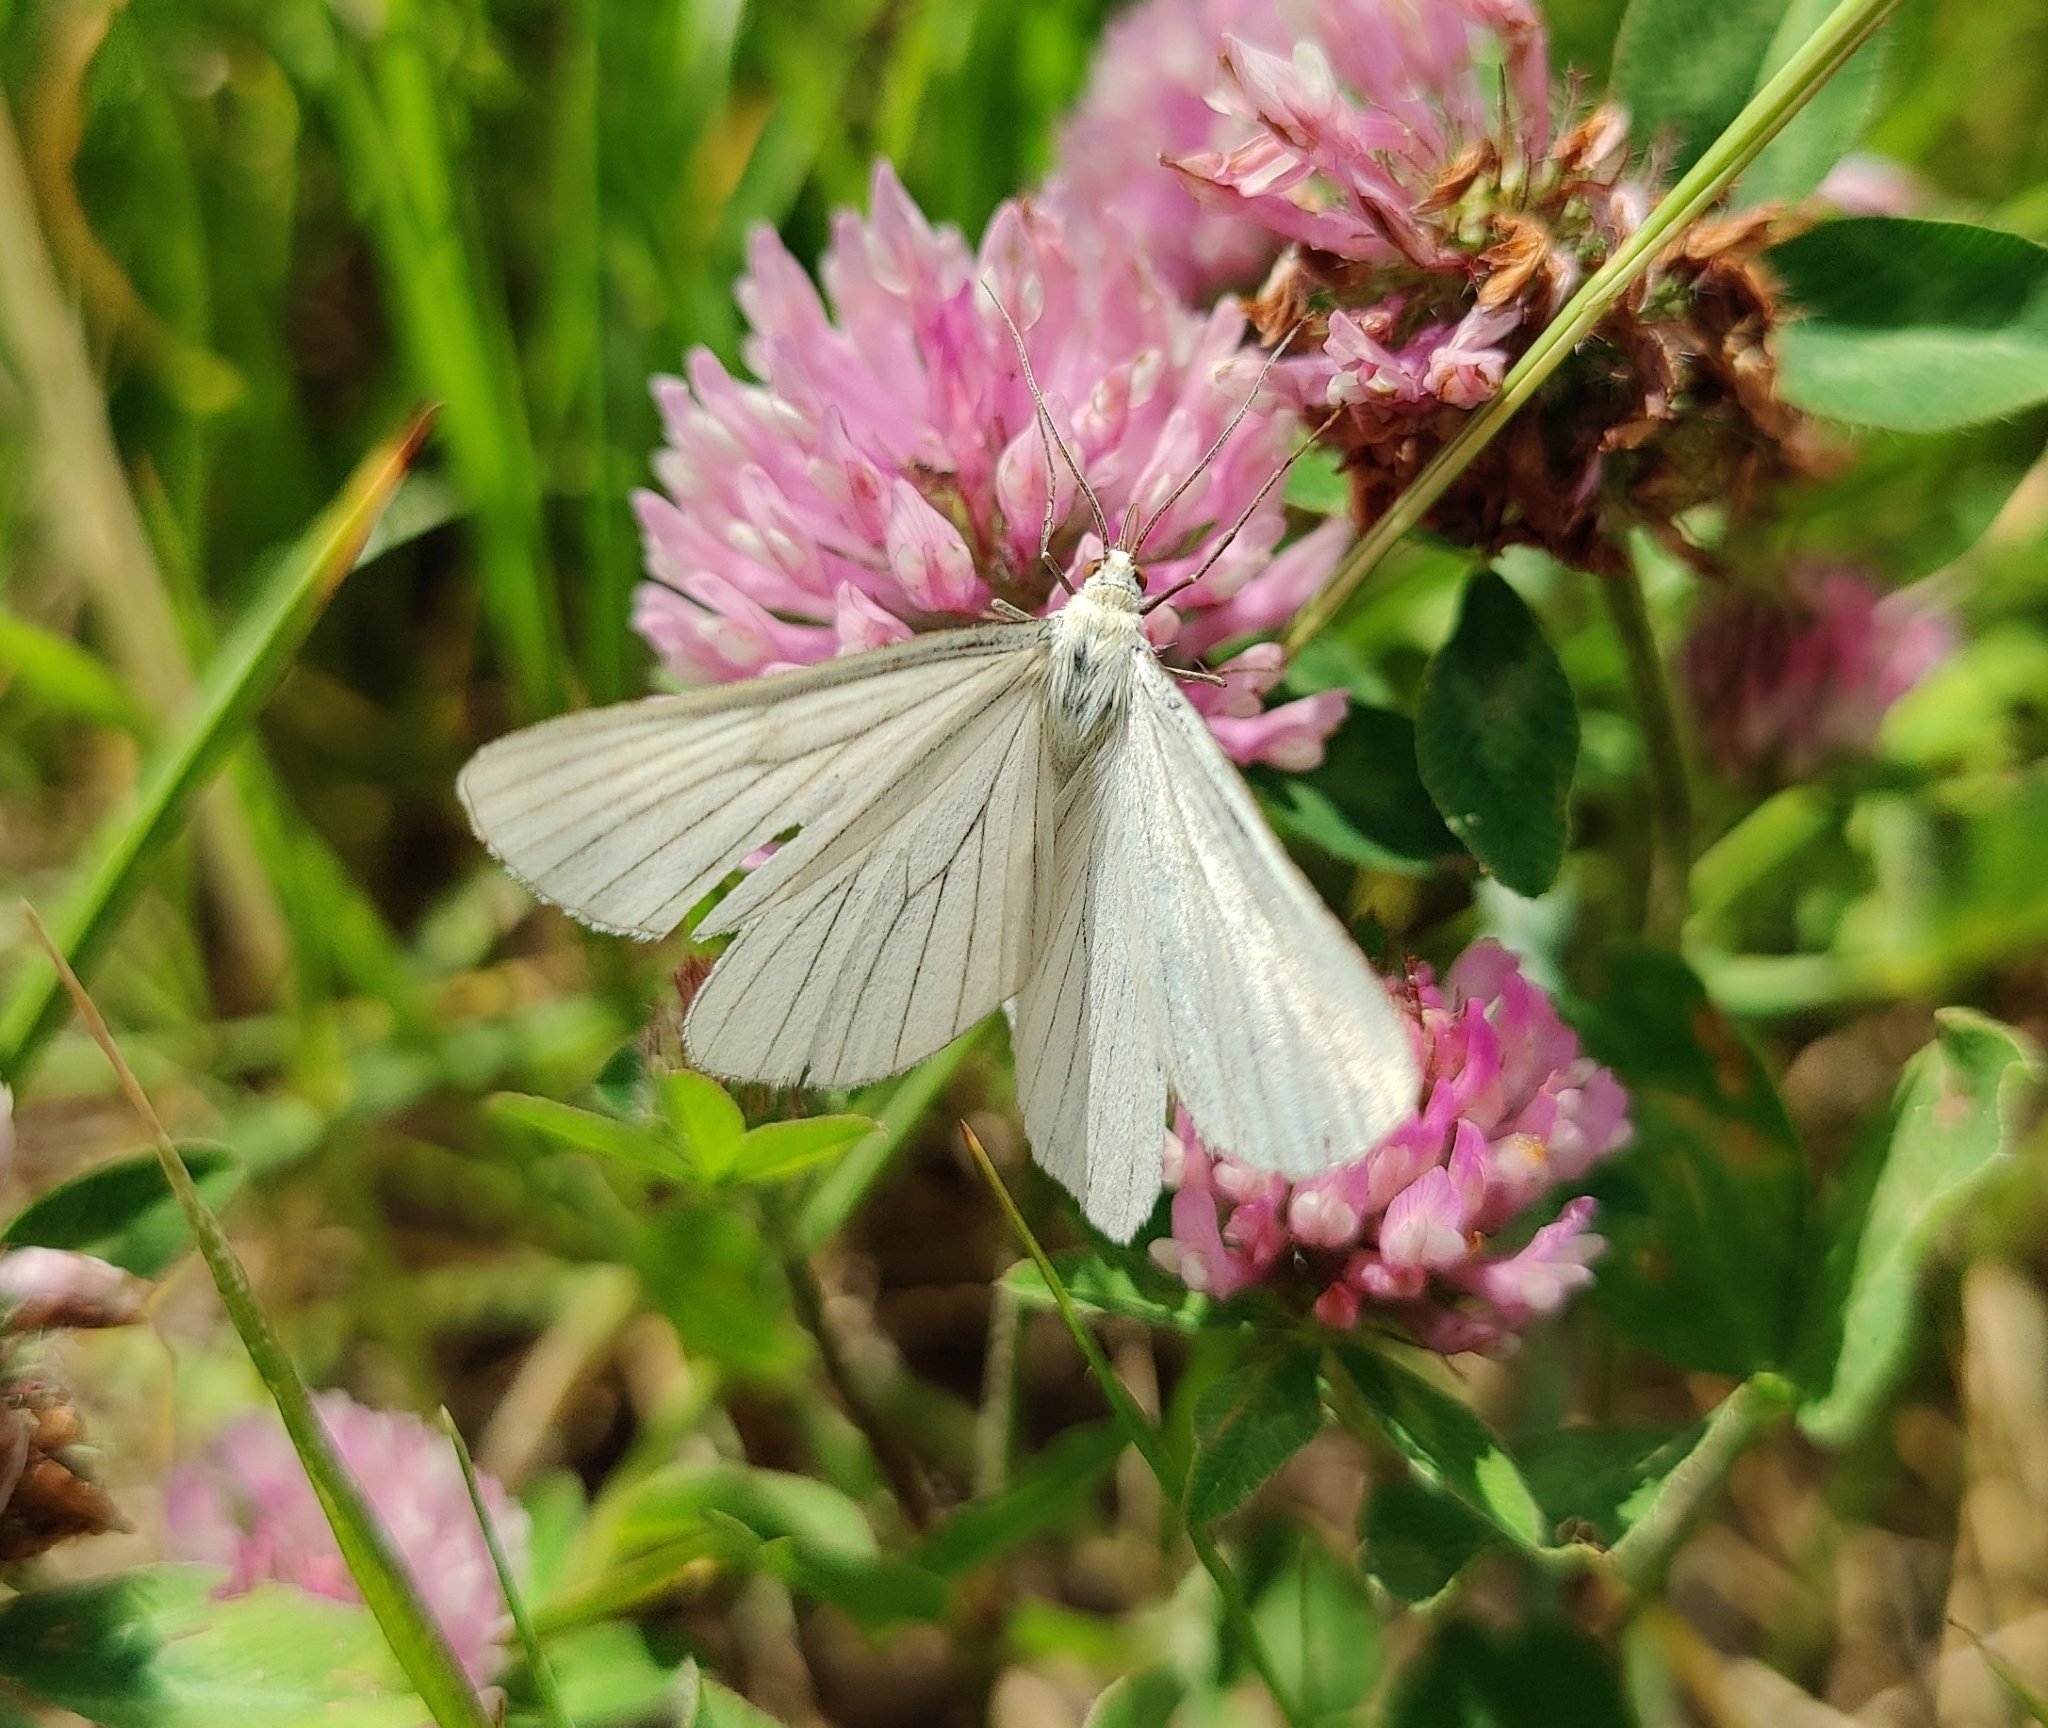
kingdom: Animalia
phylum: Arthropoda
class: Insecta
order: Lepidoptera
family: Geometridae
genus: Siona
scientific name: Siona lineata
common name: Black-veined moth
